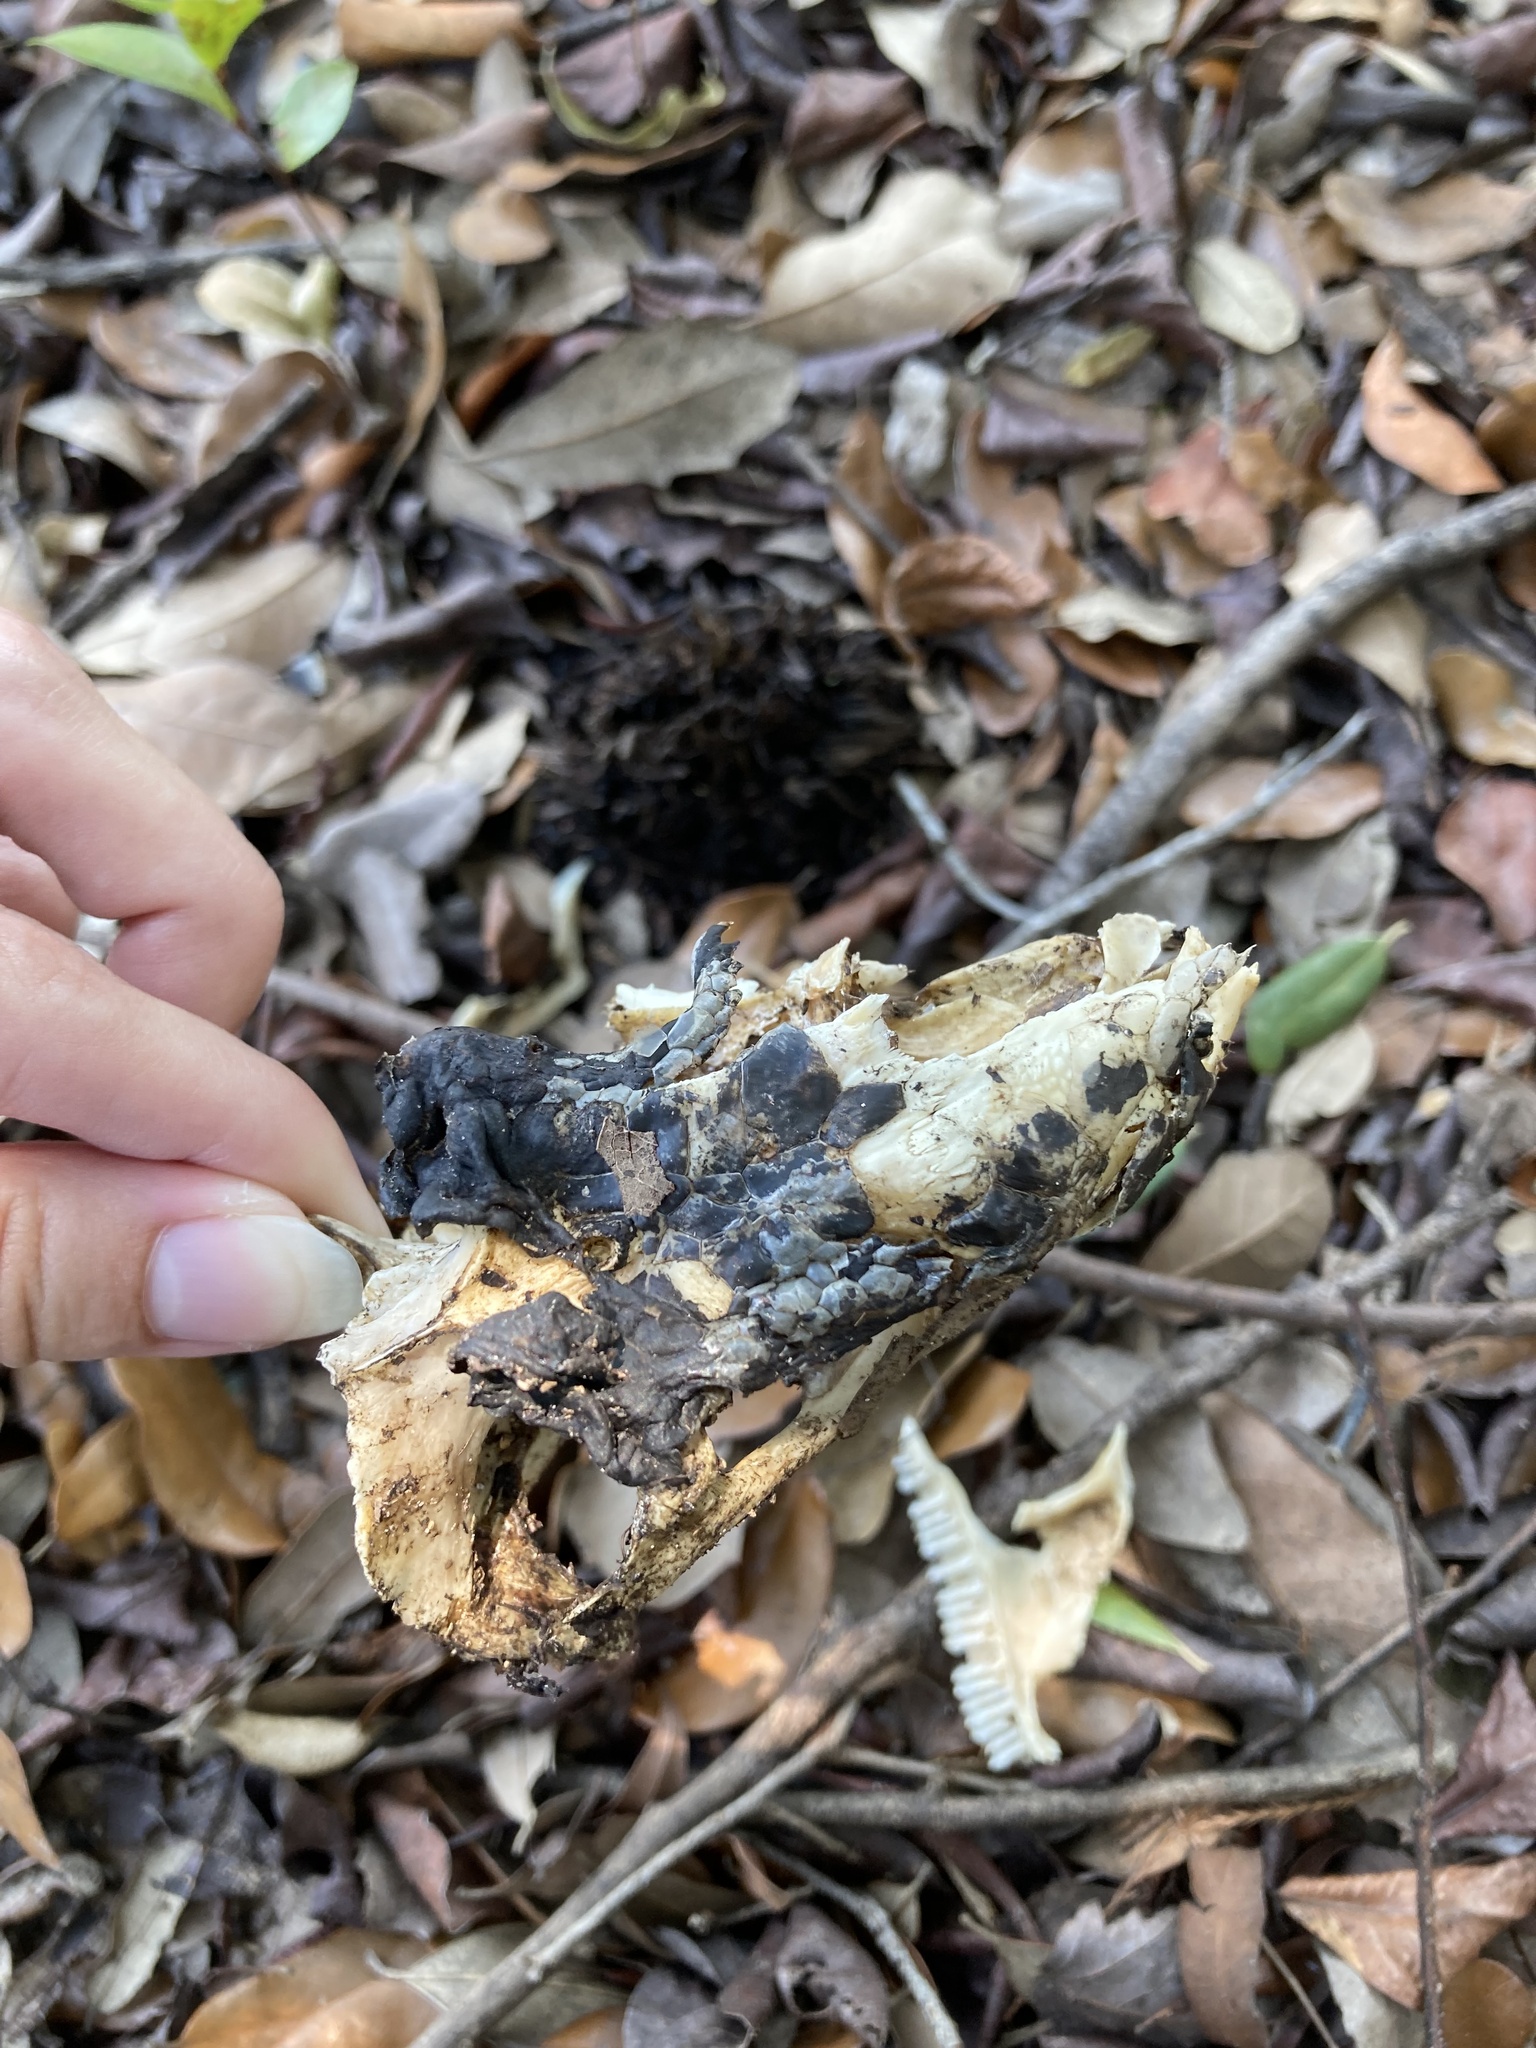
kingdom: Animalia
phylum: Chordata
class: Squamata
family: Iguanidae
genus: Iguana
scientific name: Iguana iguana
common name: Green iguana
